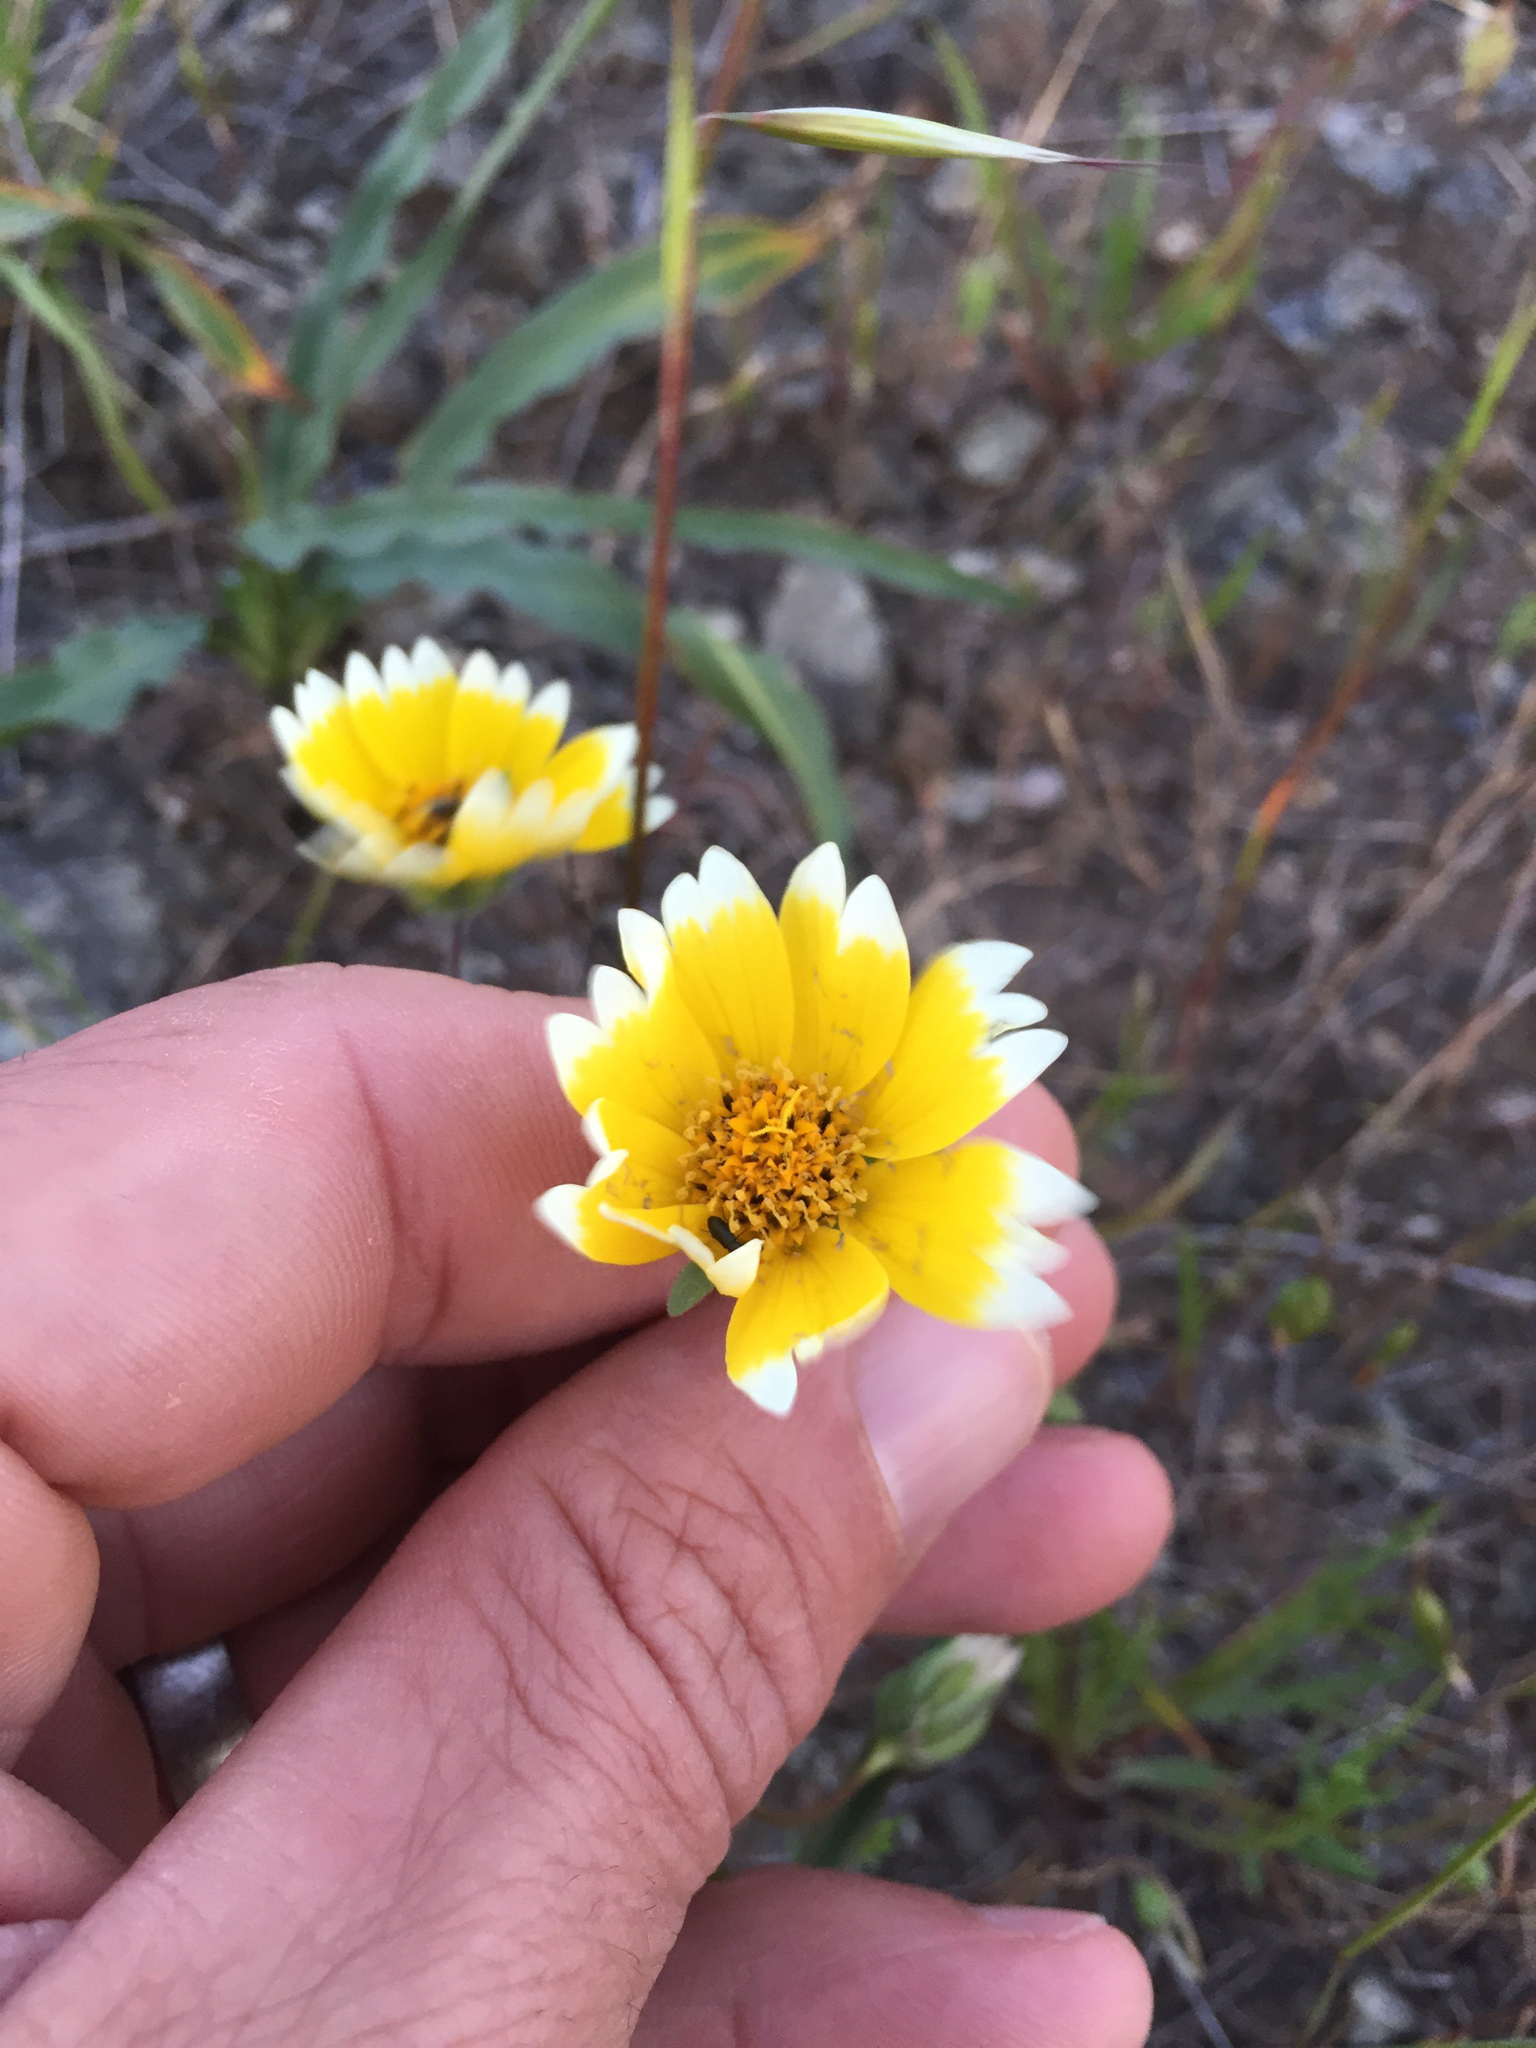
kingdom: Plantae
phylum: Tracheophyta
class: Magnoliopsida
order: Asterales
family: Asteraceae
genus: Layia
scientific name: Layia platyglossa
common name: Tidy-tips
